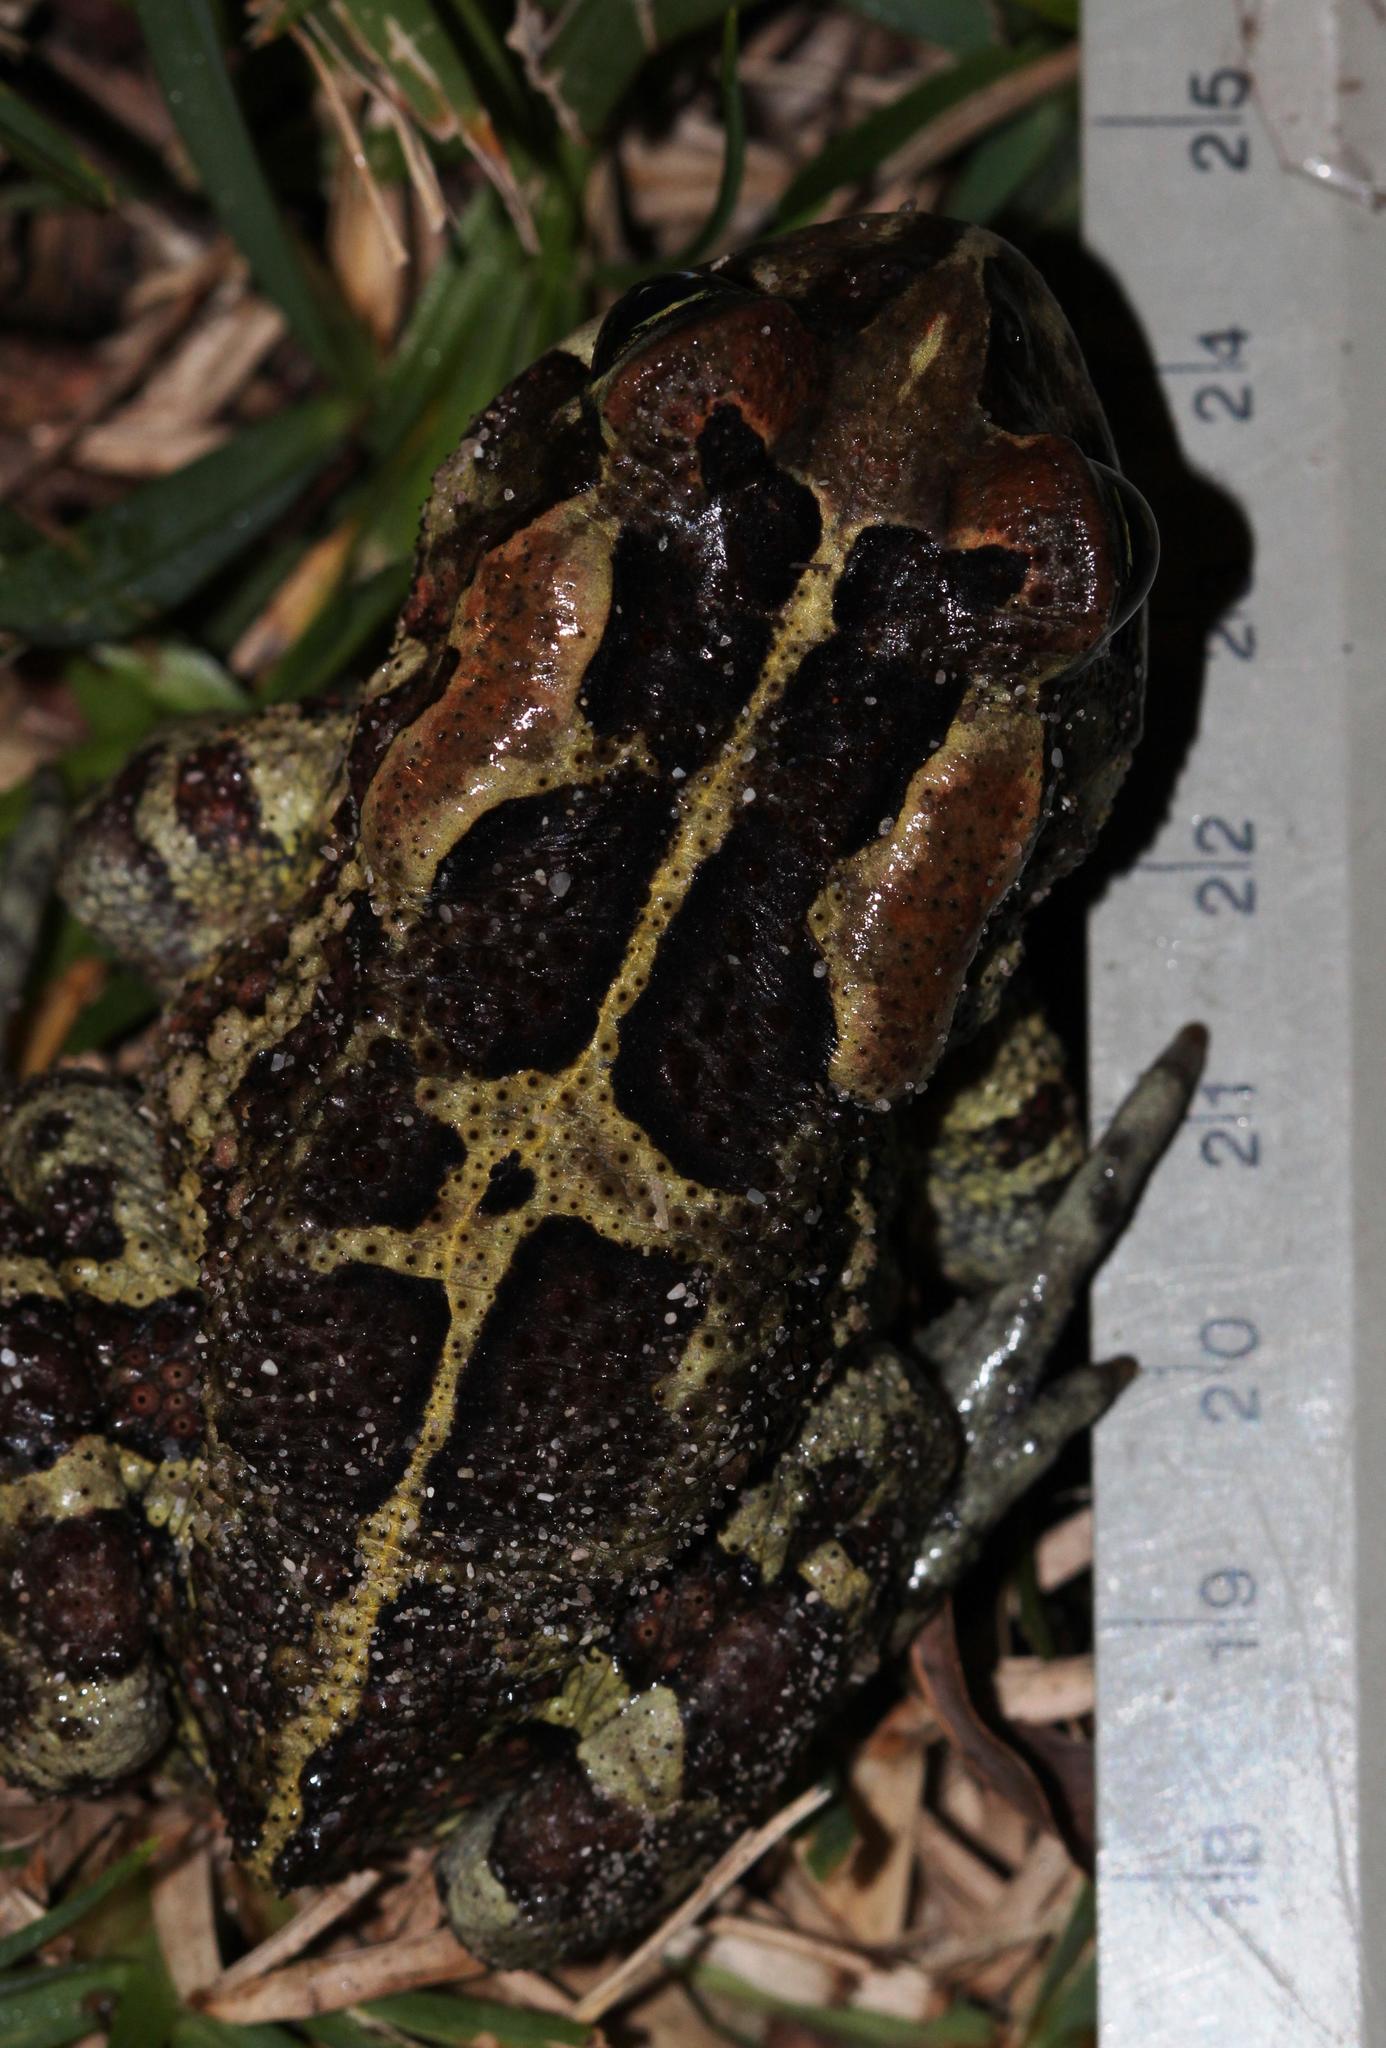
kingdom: Animalia
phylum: Chordata
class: Amphibia
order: Anura
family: Bufonidae
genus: Sclerophrys
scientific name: Sclerophrys pantherina
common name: Panther toad
